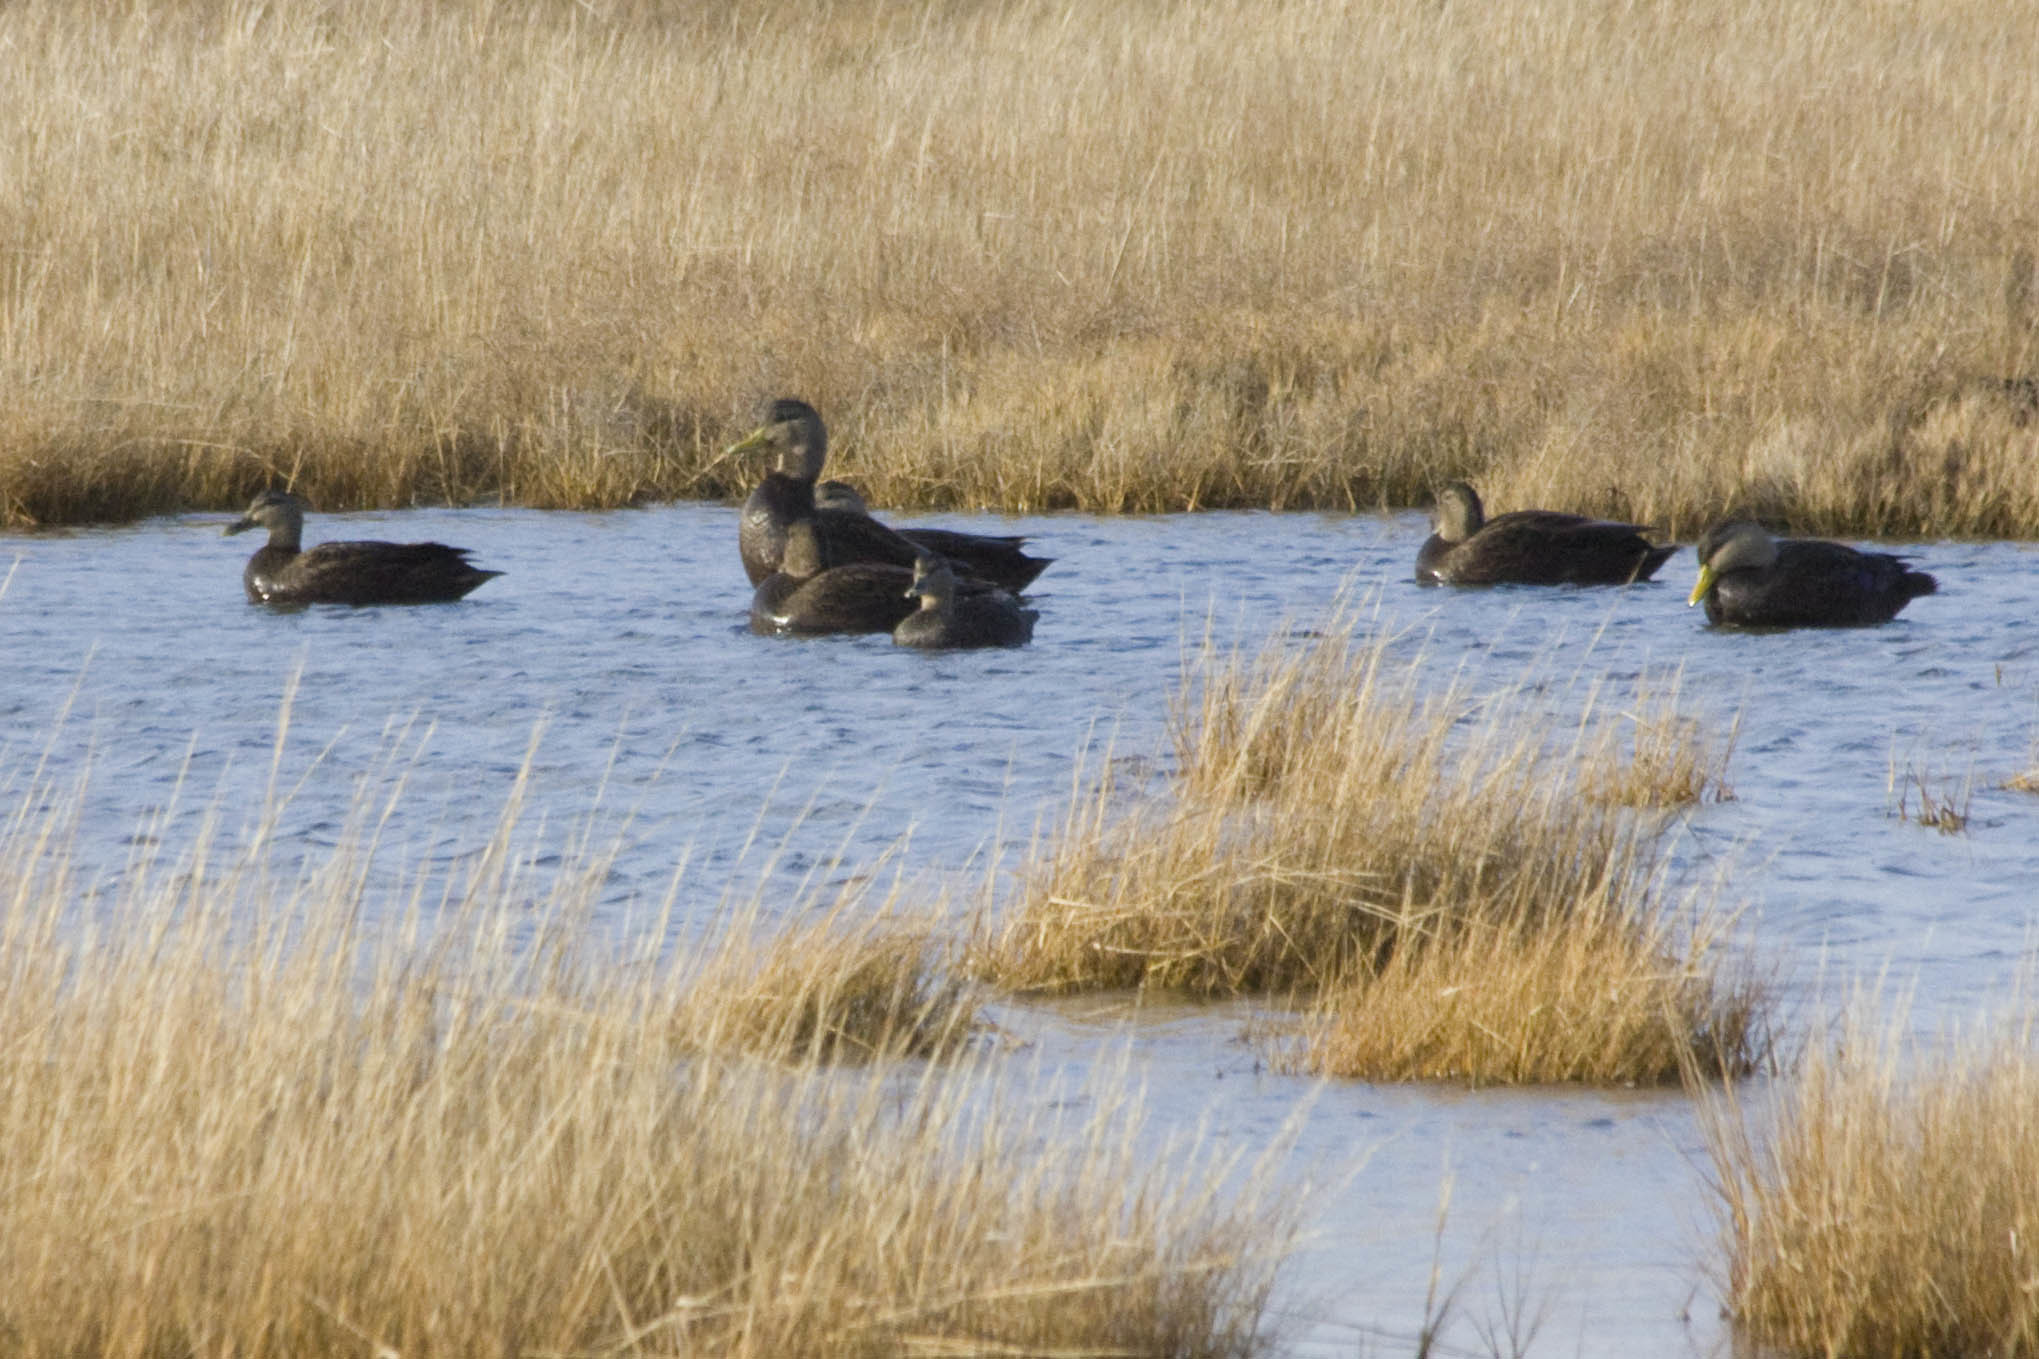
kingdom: Animalia
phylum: Chordata
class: Aves
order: Anseriformes
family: Anatidae
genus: Anas
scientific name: Anas rubripes
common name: American black duck
